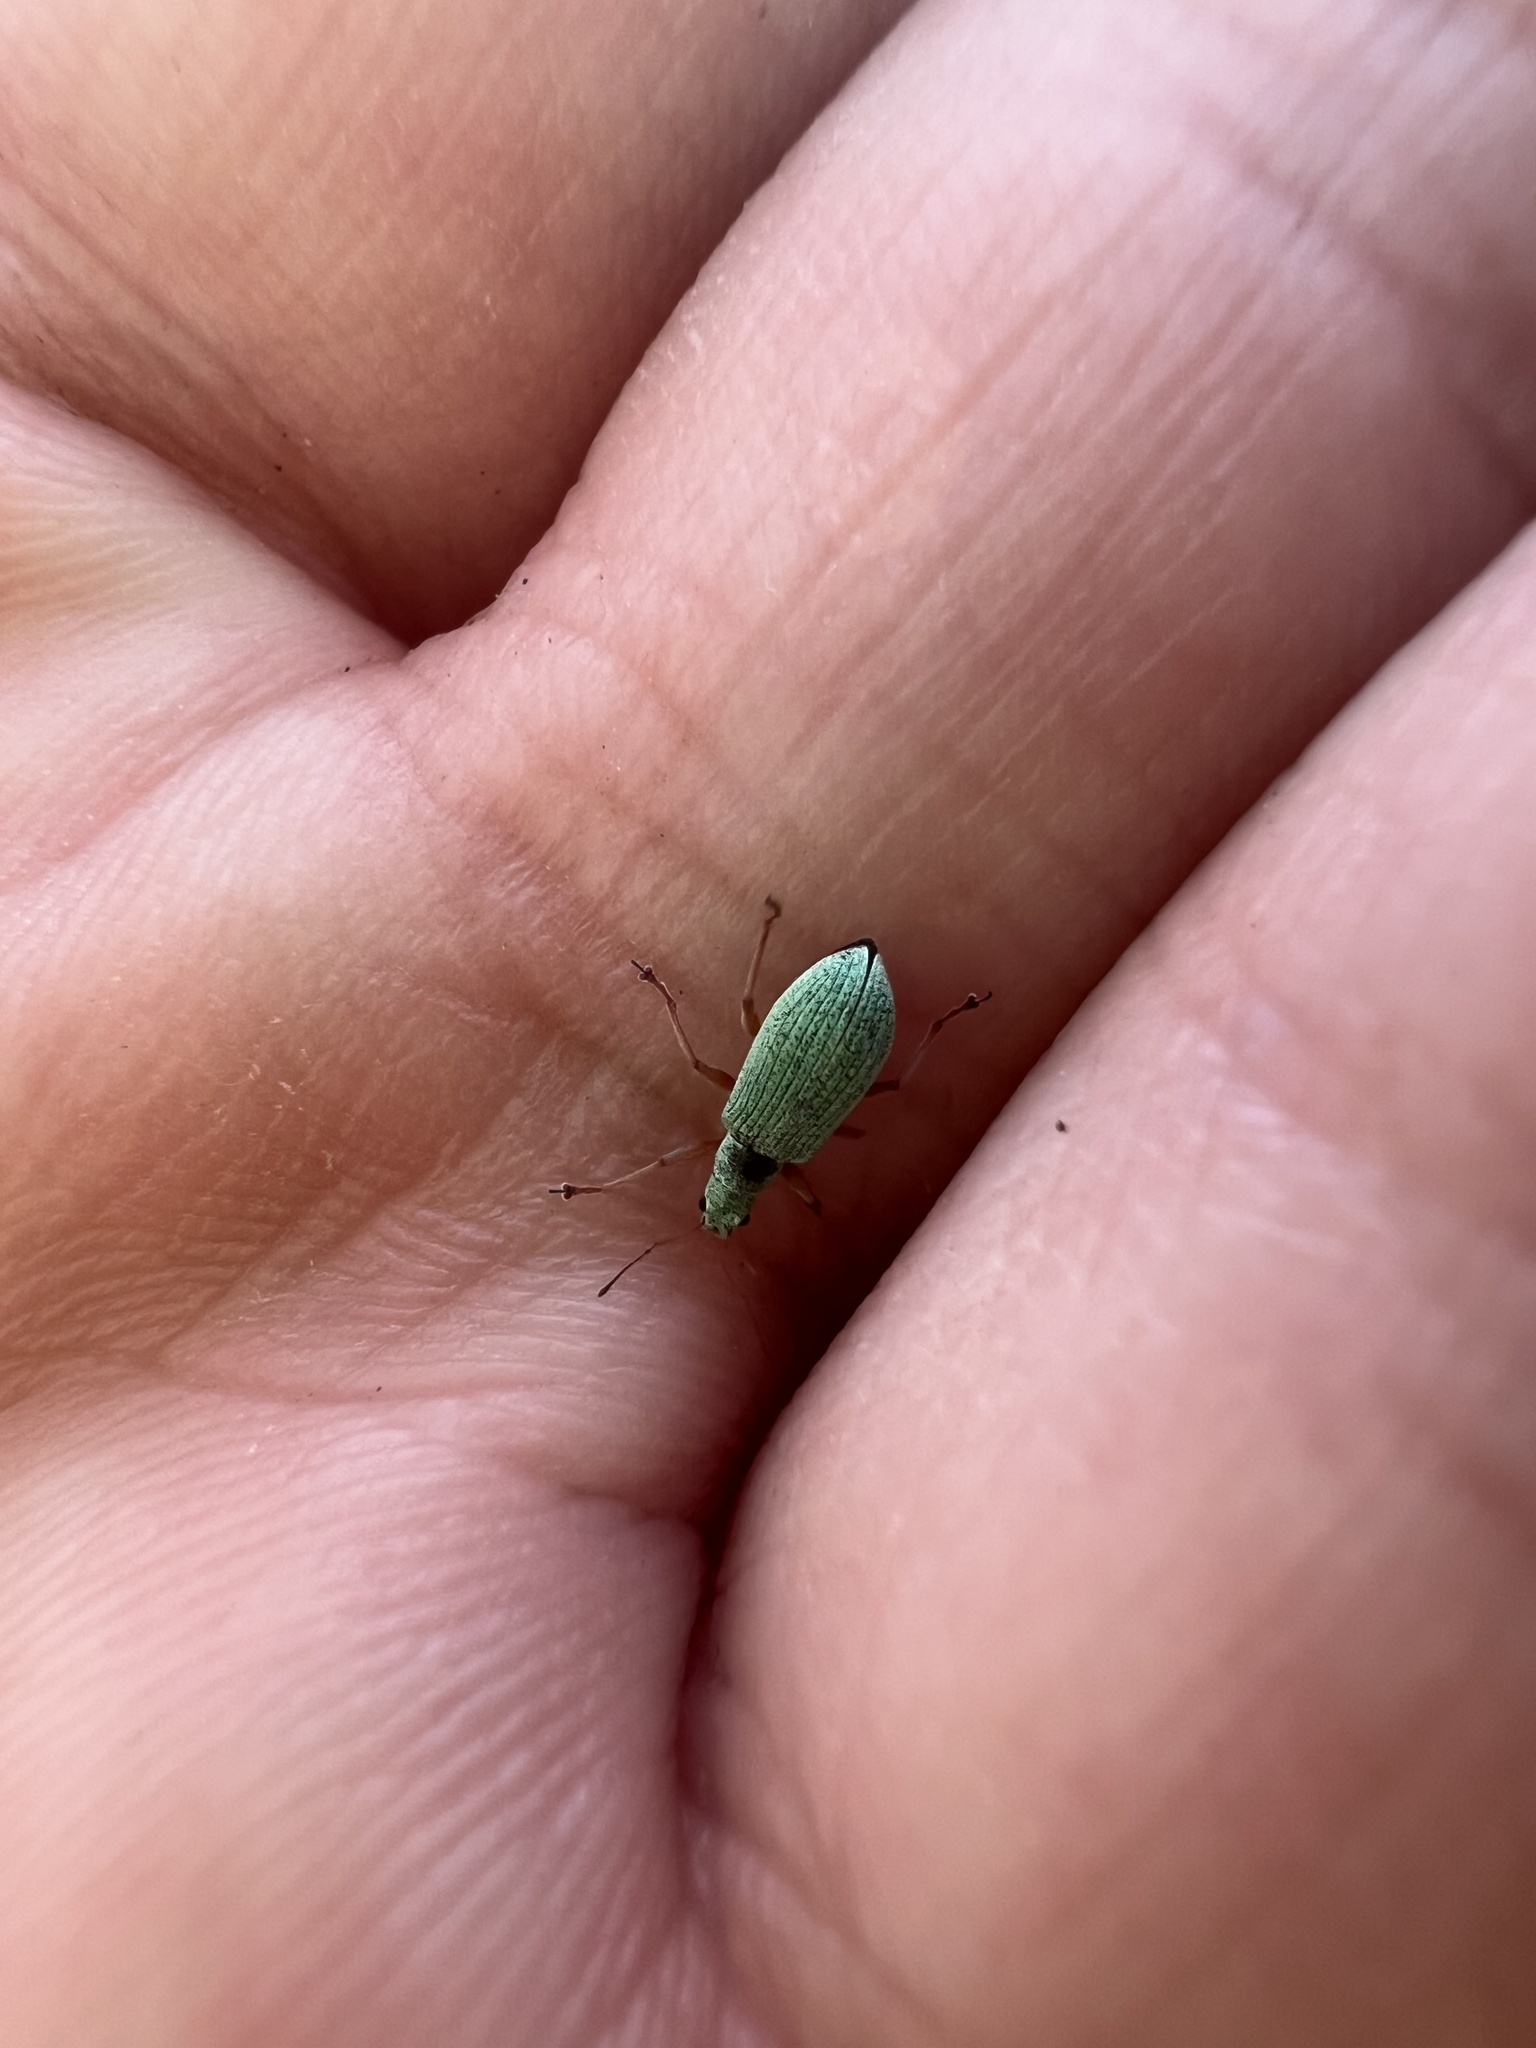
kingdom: Animalia
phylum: Arthropoda
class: Insecta
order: Coleoptera
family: Curculionidae
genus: Polydrusus
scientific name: Polydrusus impressifrons
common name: Weevil
